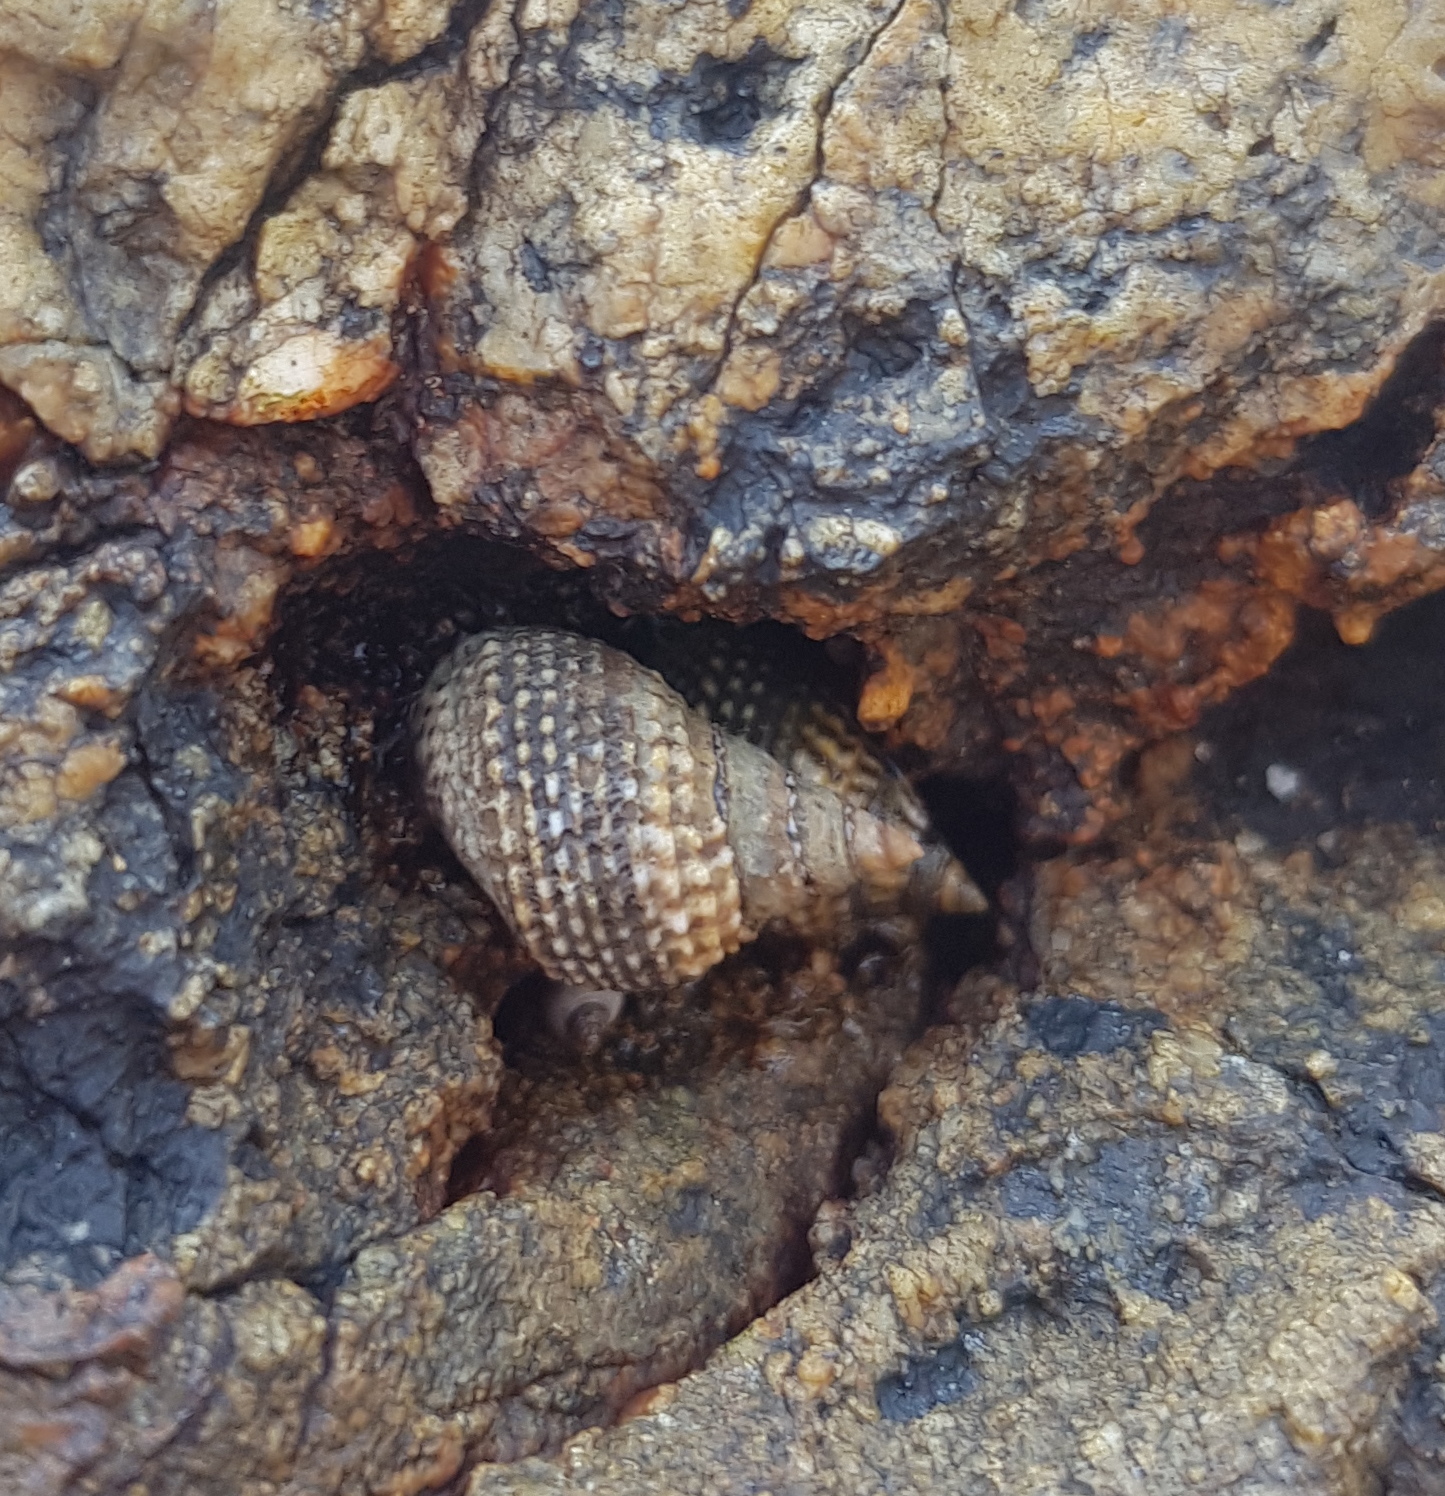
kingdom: Animalia
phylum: Mollusca
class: Gastropoda
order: Littorinimorpha
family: Littorinidae
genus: Echinolittorina
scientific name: Echinolittorina aspera
